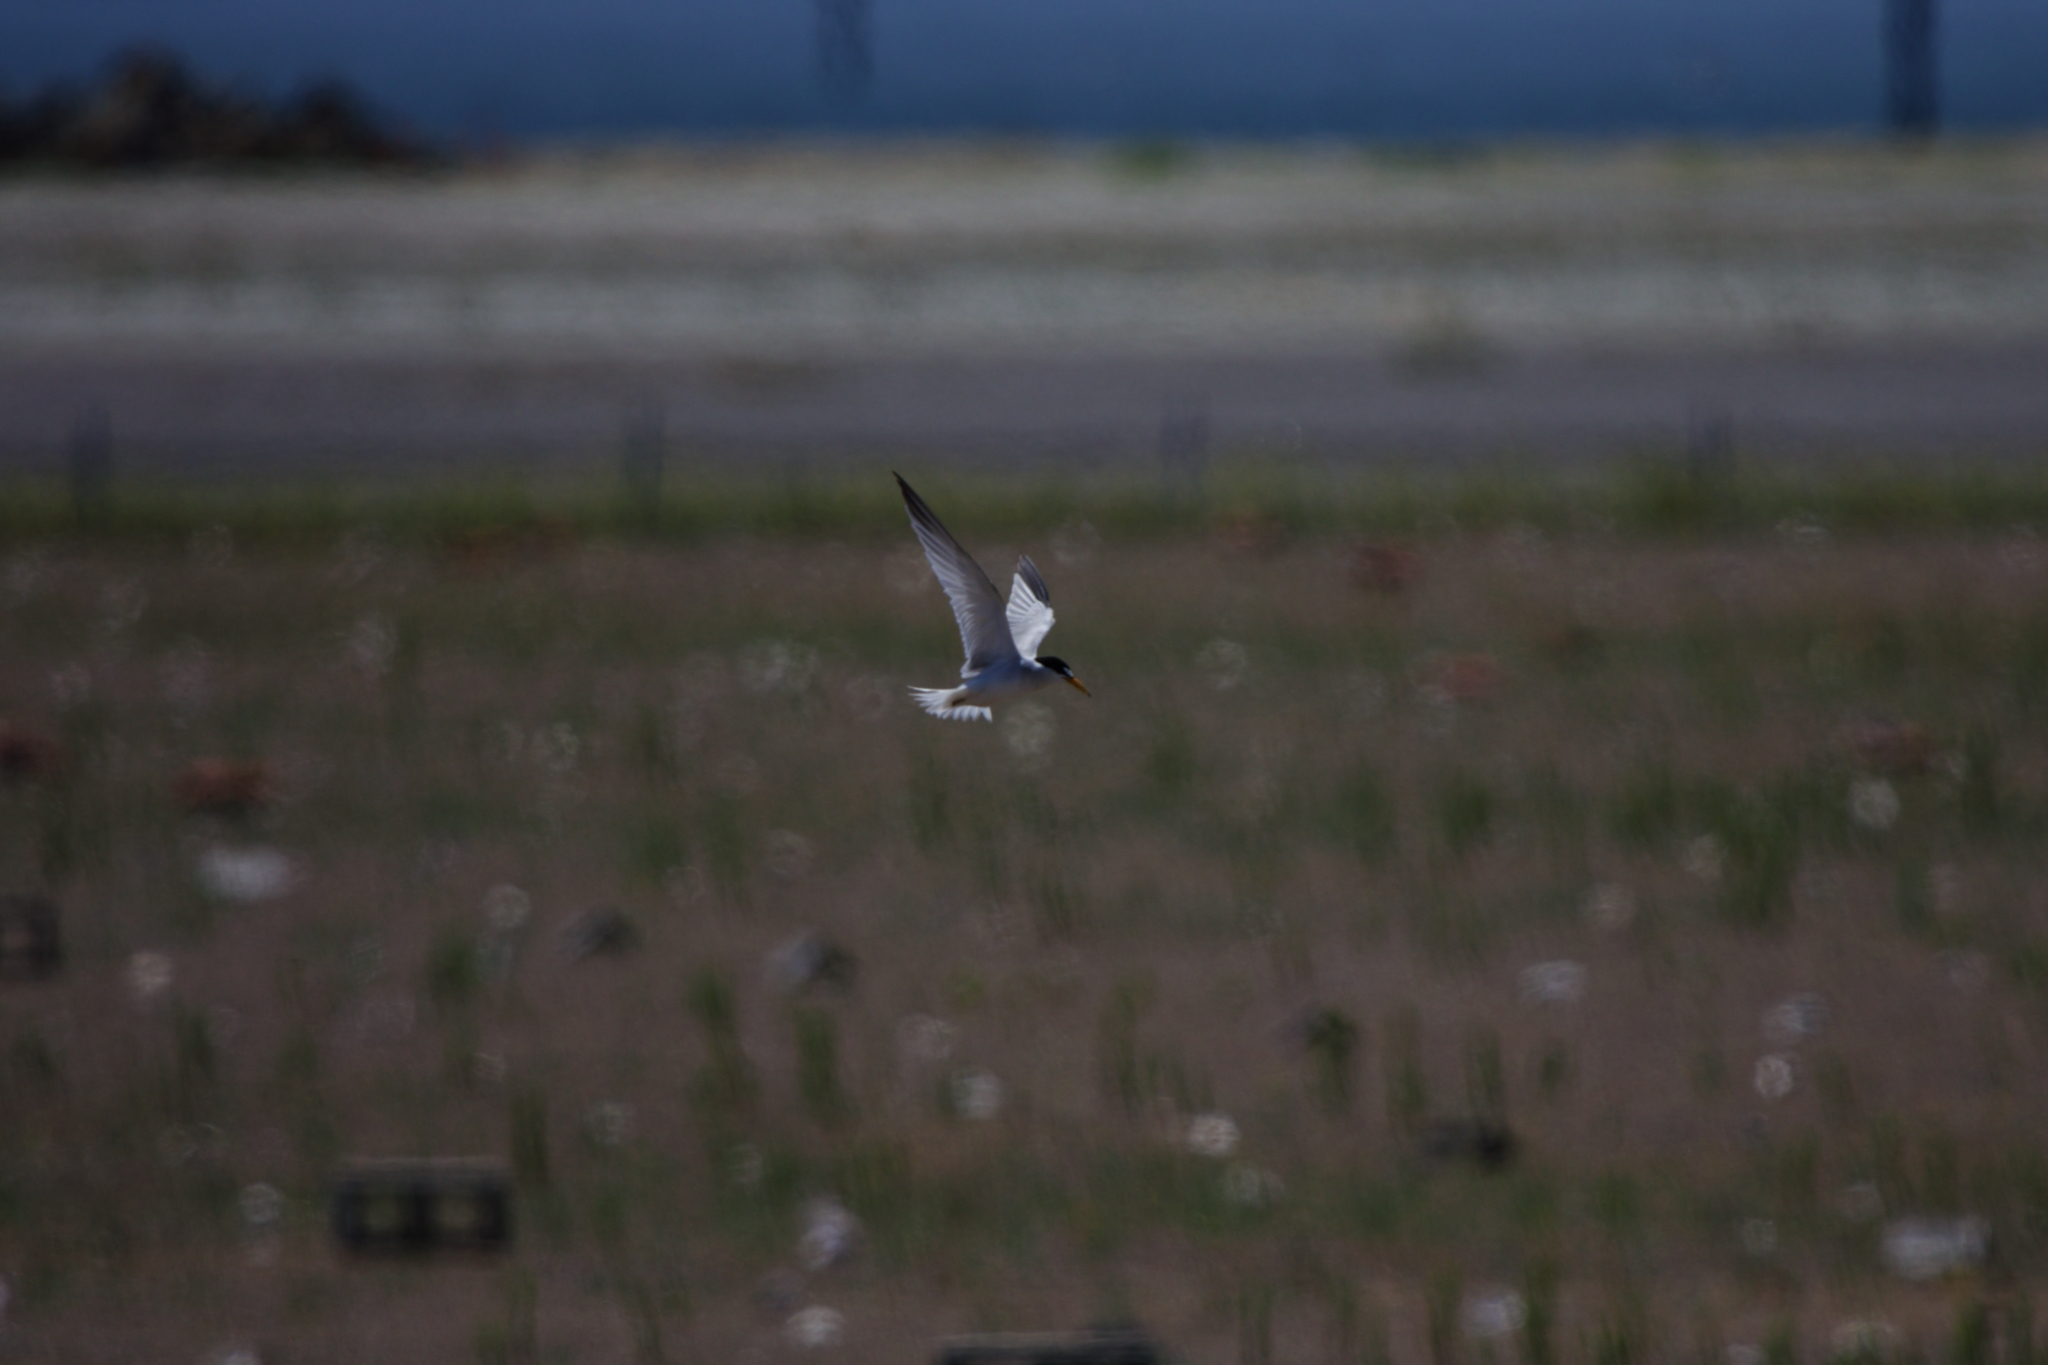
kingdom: Animalia
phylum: Chordata
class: Aves
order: Charadriiformes
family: Laridae
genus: Sternula
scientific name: Sternula antillarum
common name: Least tern
